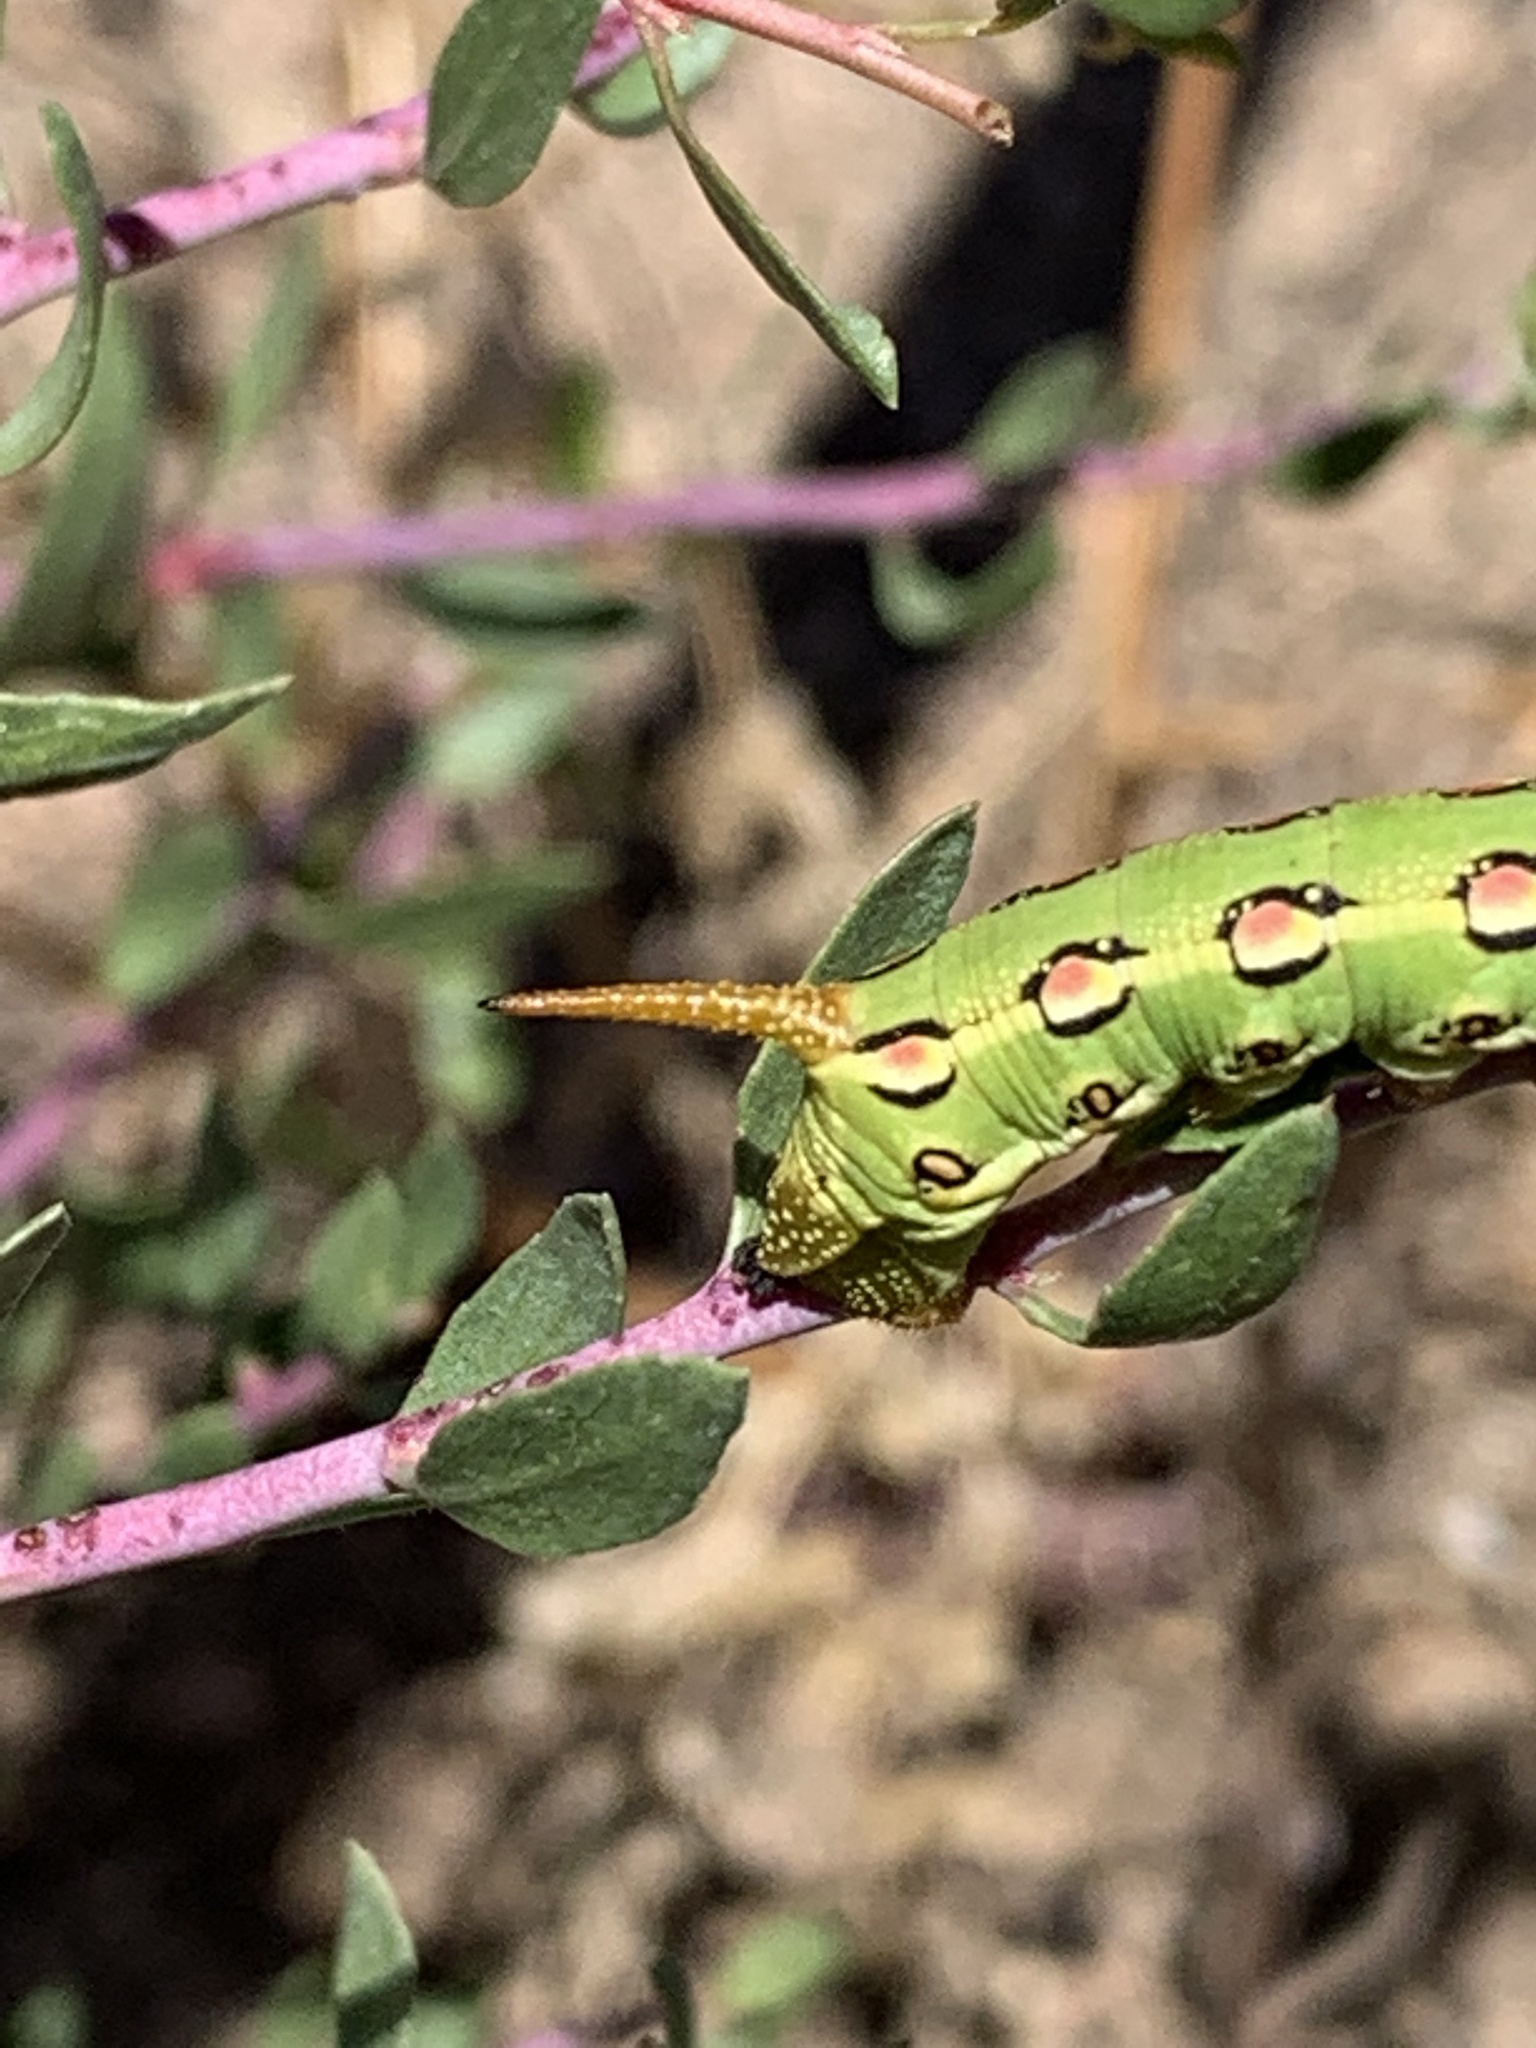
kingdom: Animalia
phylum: Arthropoda
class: Insecta
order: Lepidoptera
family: Sphingidae
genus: Hyles
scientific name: Hyles lineata
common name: White-lined sphinx
